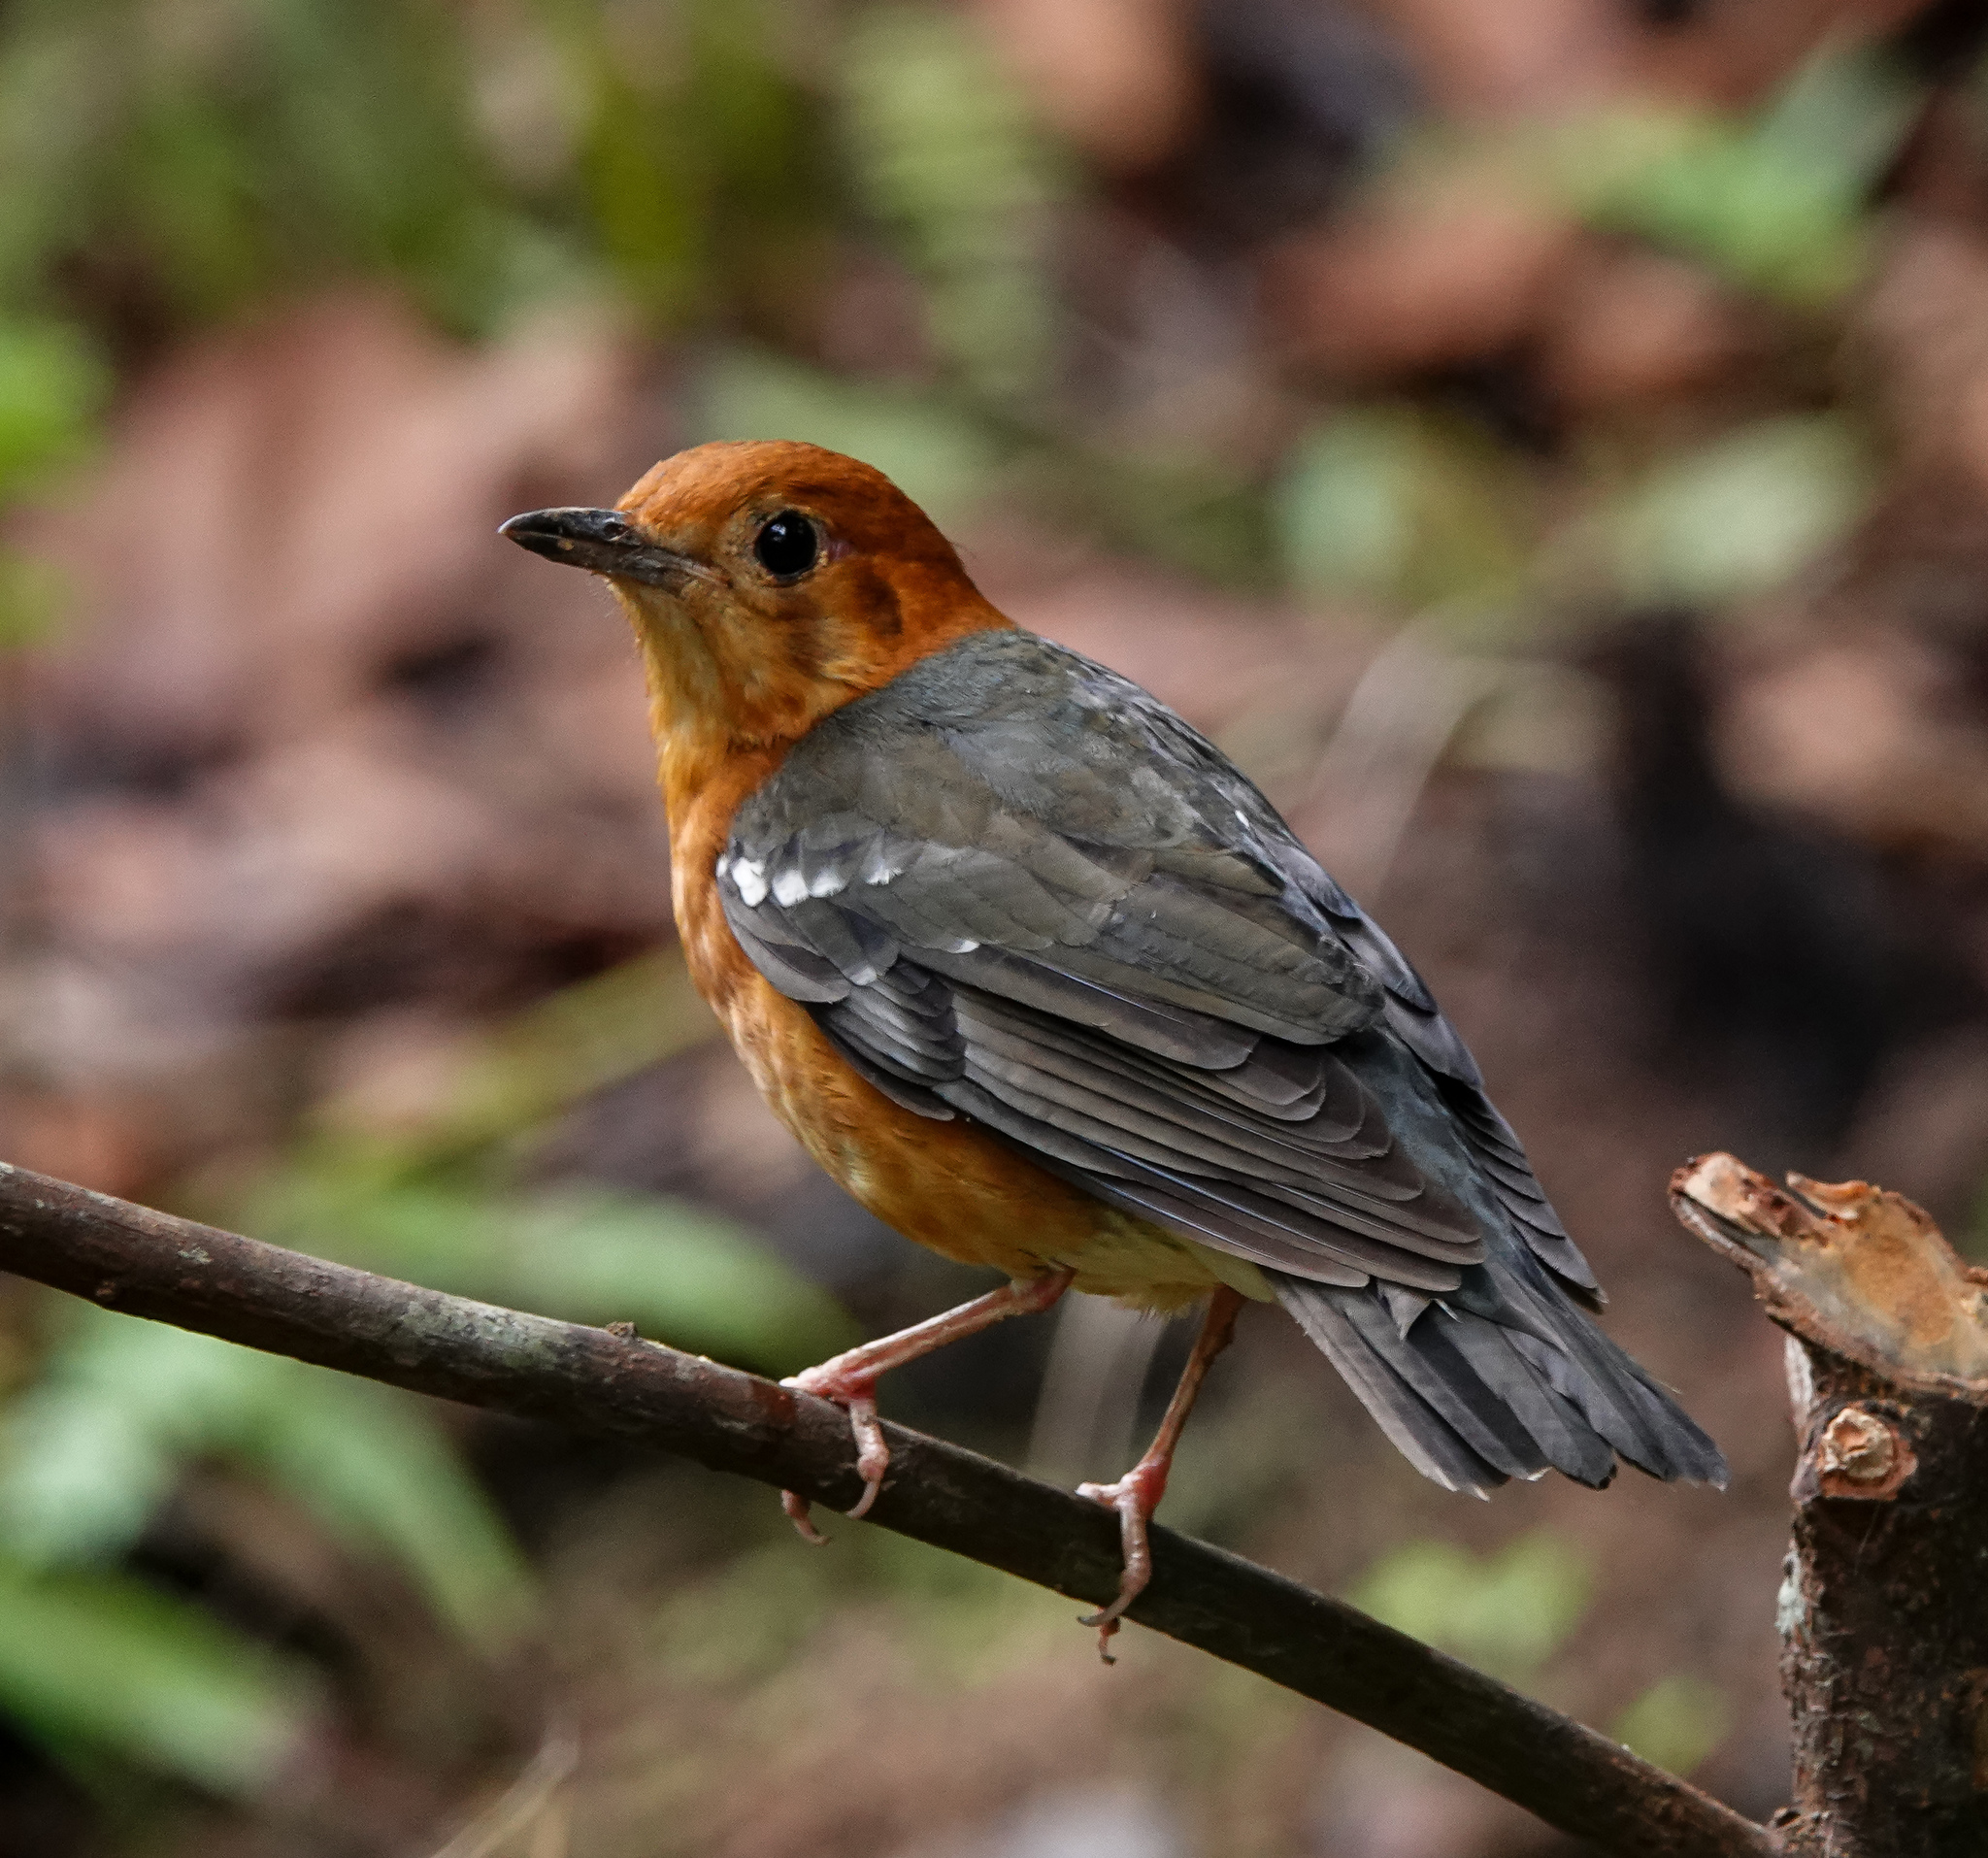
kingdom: Animalia
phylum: Chordata
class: Aves
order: Passeriformes
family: Turdidae
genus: Geokichla
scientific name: Geokichla citrina
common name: Orange-headed thrush
